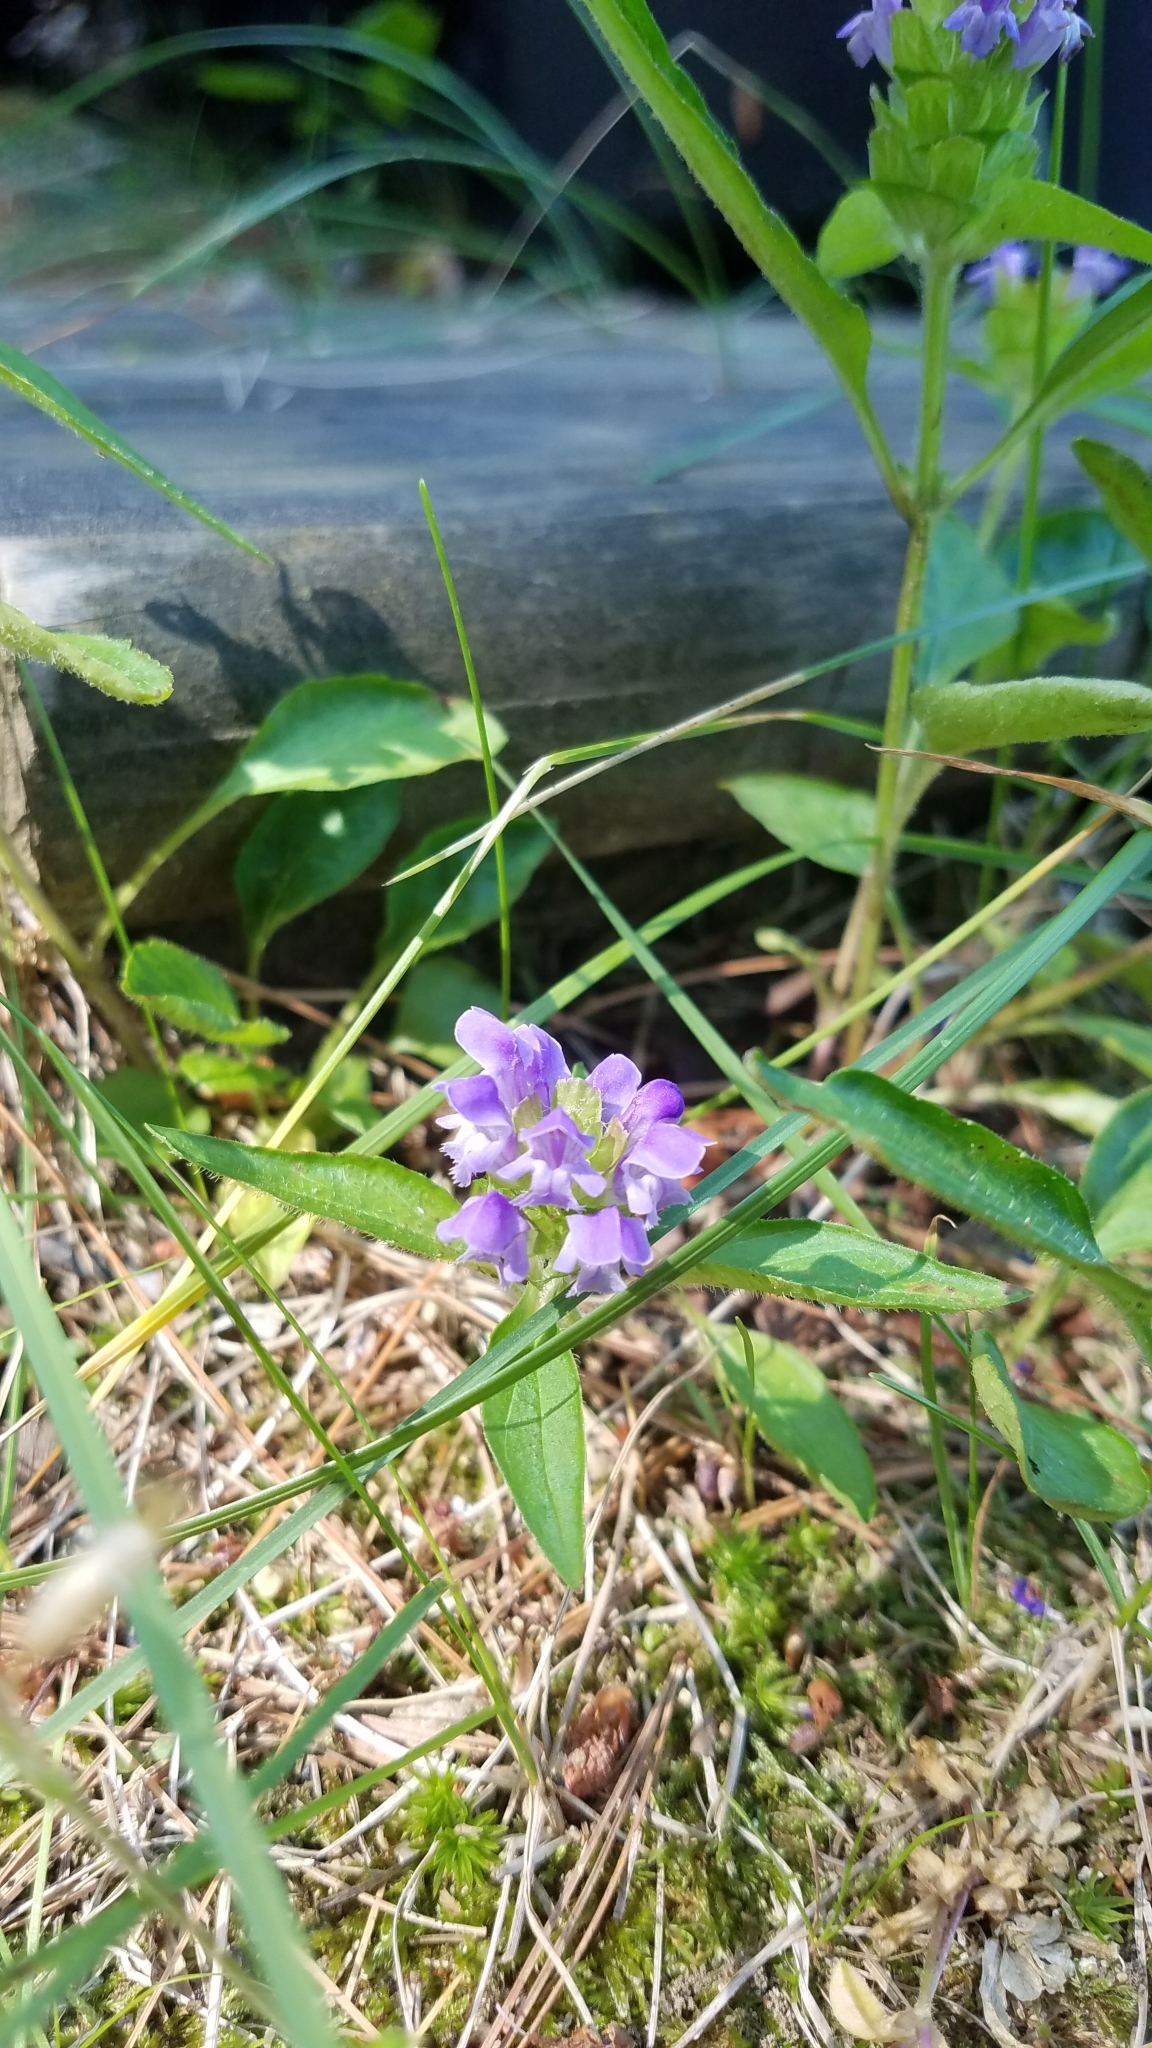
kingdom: Plantae
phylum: Tracheophyta
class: Magnoliopsida
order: Lamiales
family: Lamiaceae
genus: Prunella
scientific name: Prunella vulgaris
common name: Heal-all
